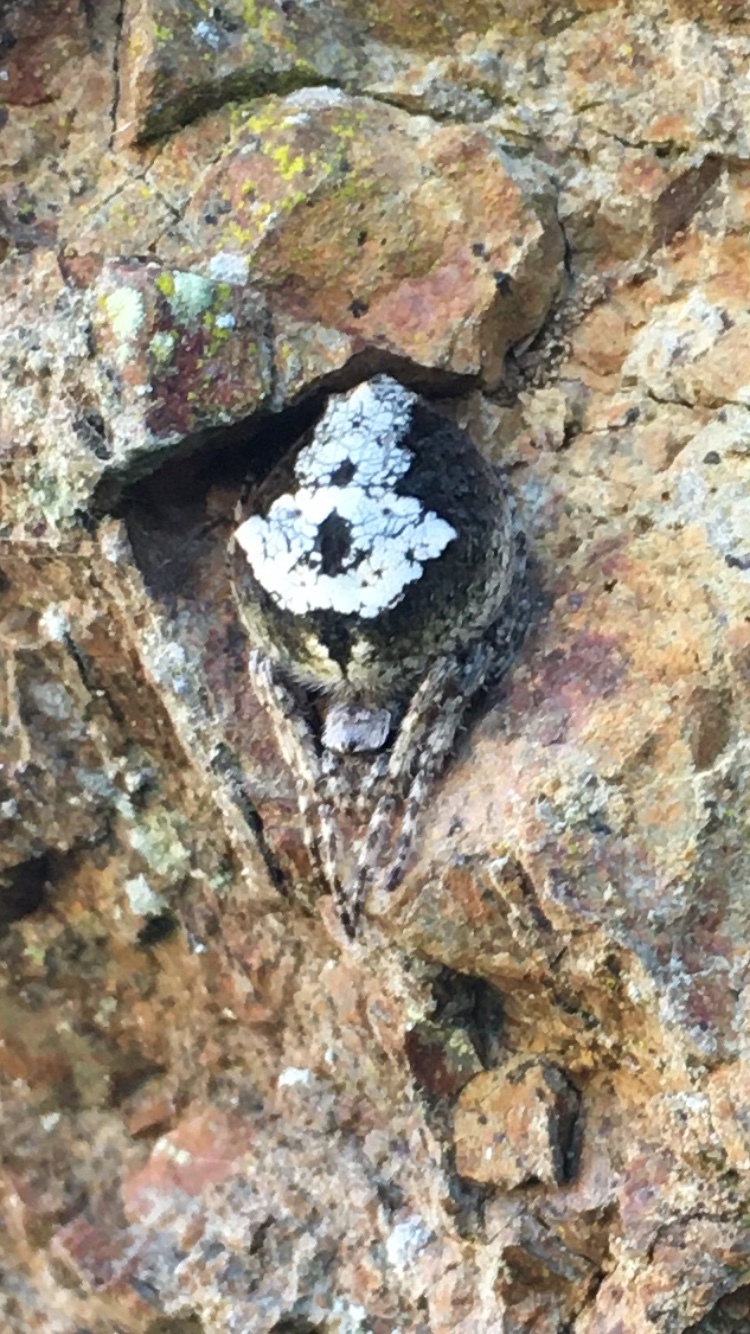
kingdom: Animalia
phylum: Arthropoda
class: Arachnida
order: Araneae
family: Araneidae
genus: Eriophora
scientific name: Eriophora pustulosa
